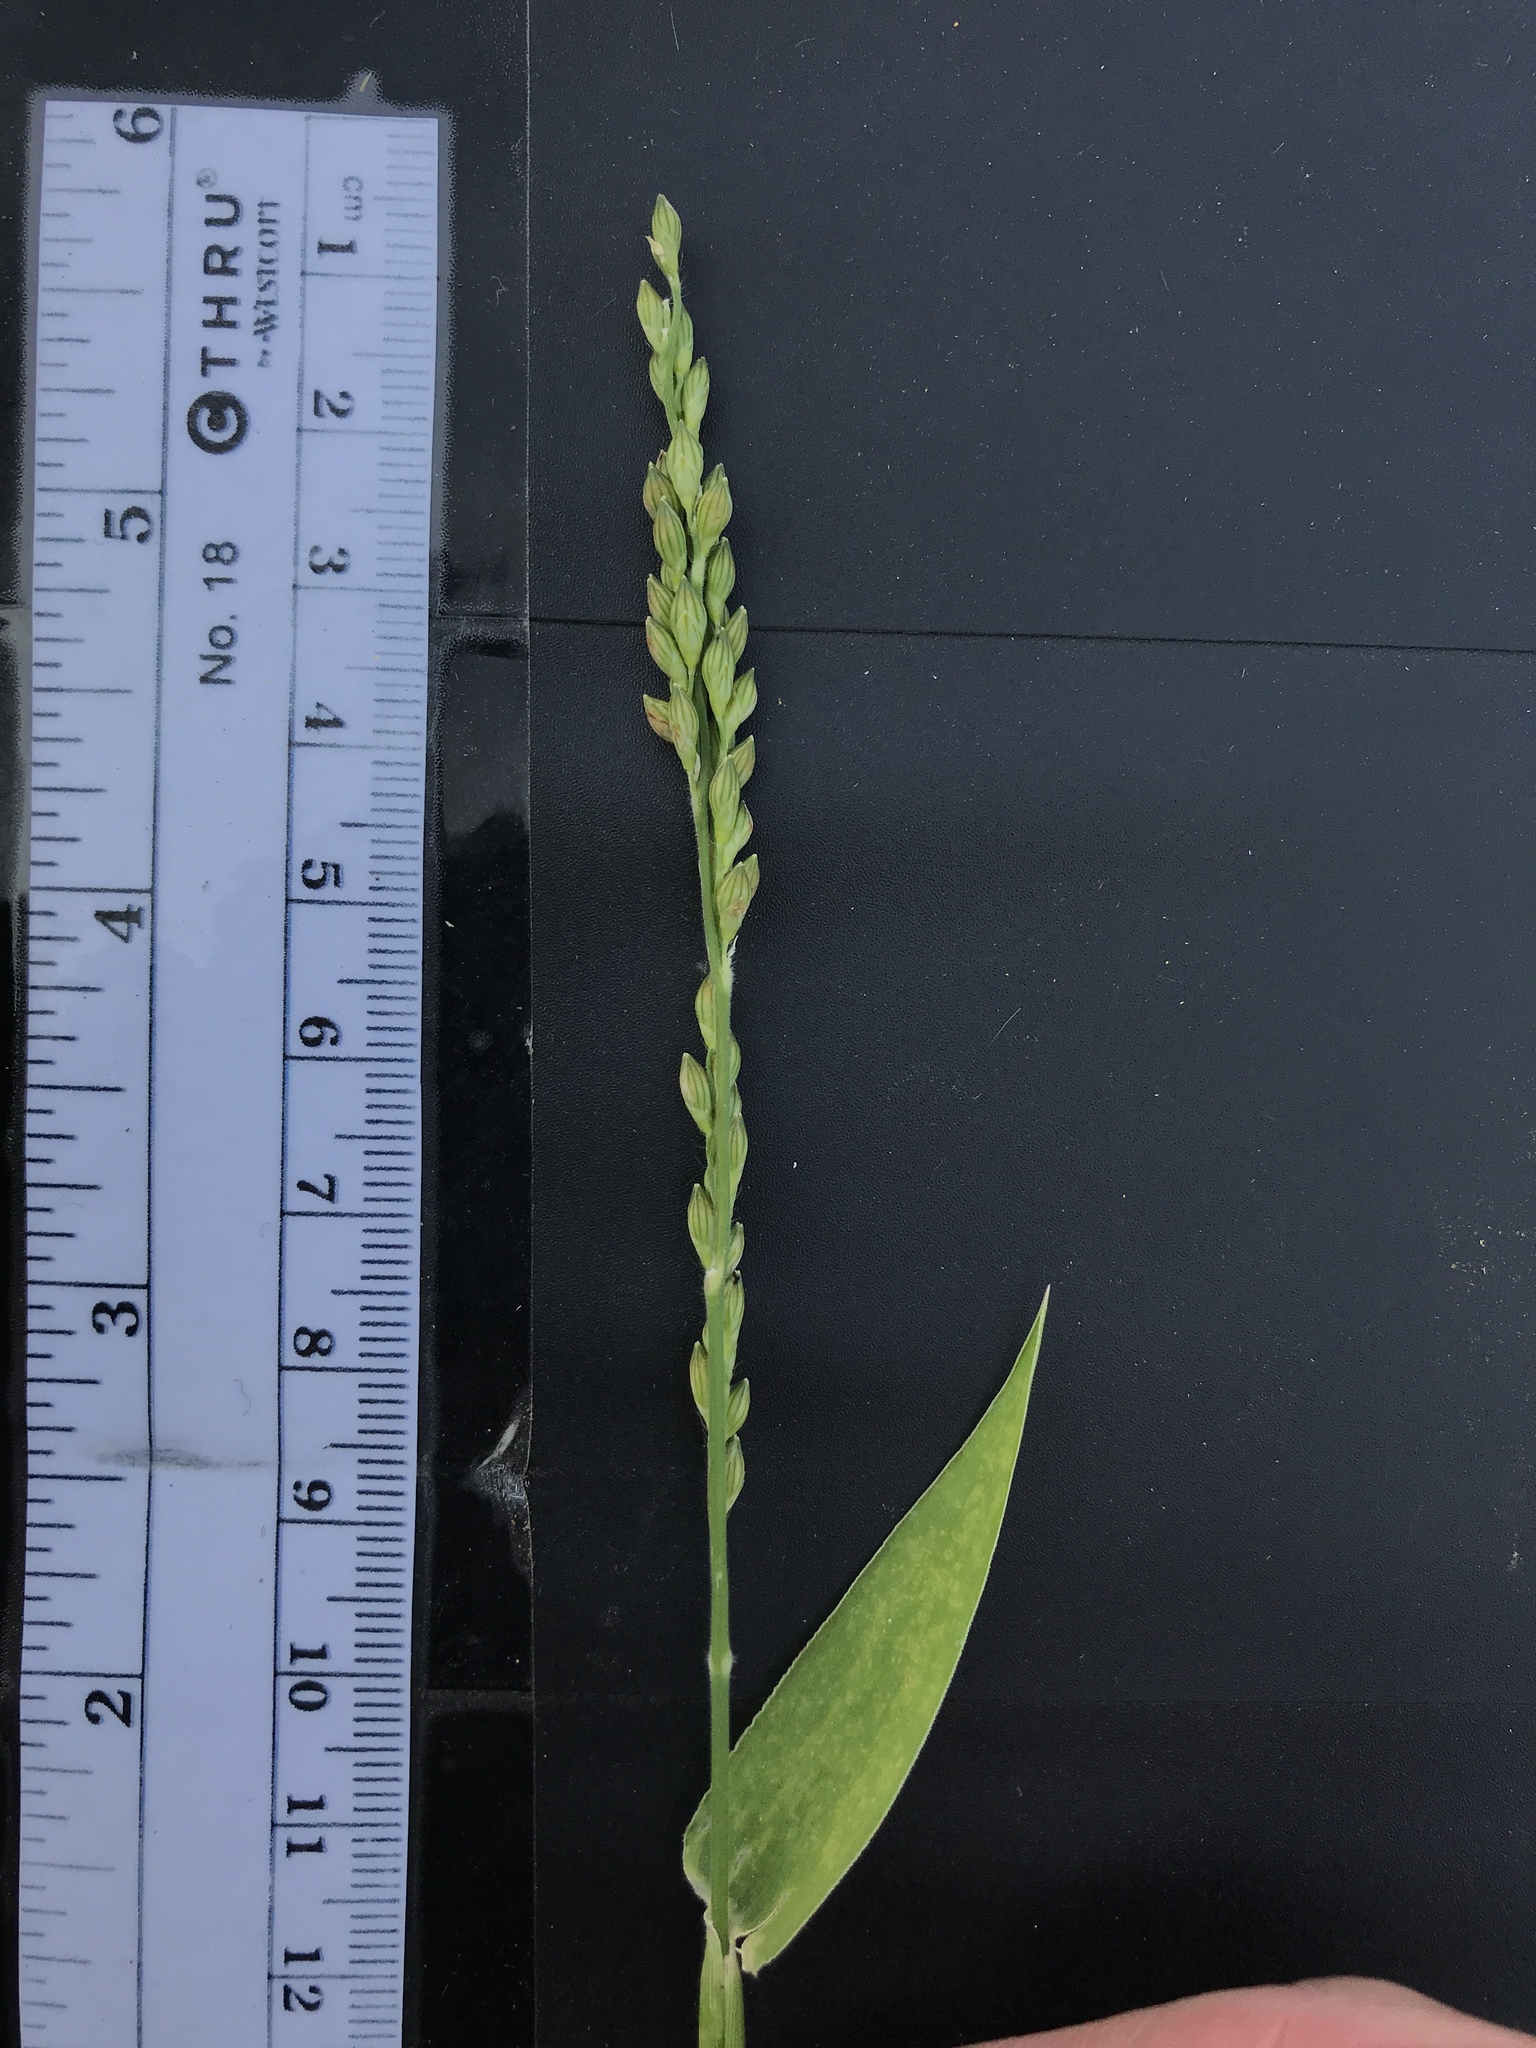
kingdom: Plantae
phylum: Tracheophyta
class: Liliopsida
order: Poales
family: Poaceae
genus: Urochloa
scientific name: Urochloa texana
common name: Texas millet
